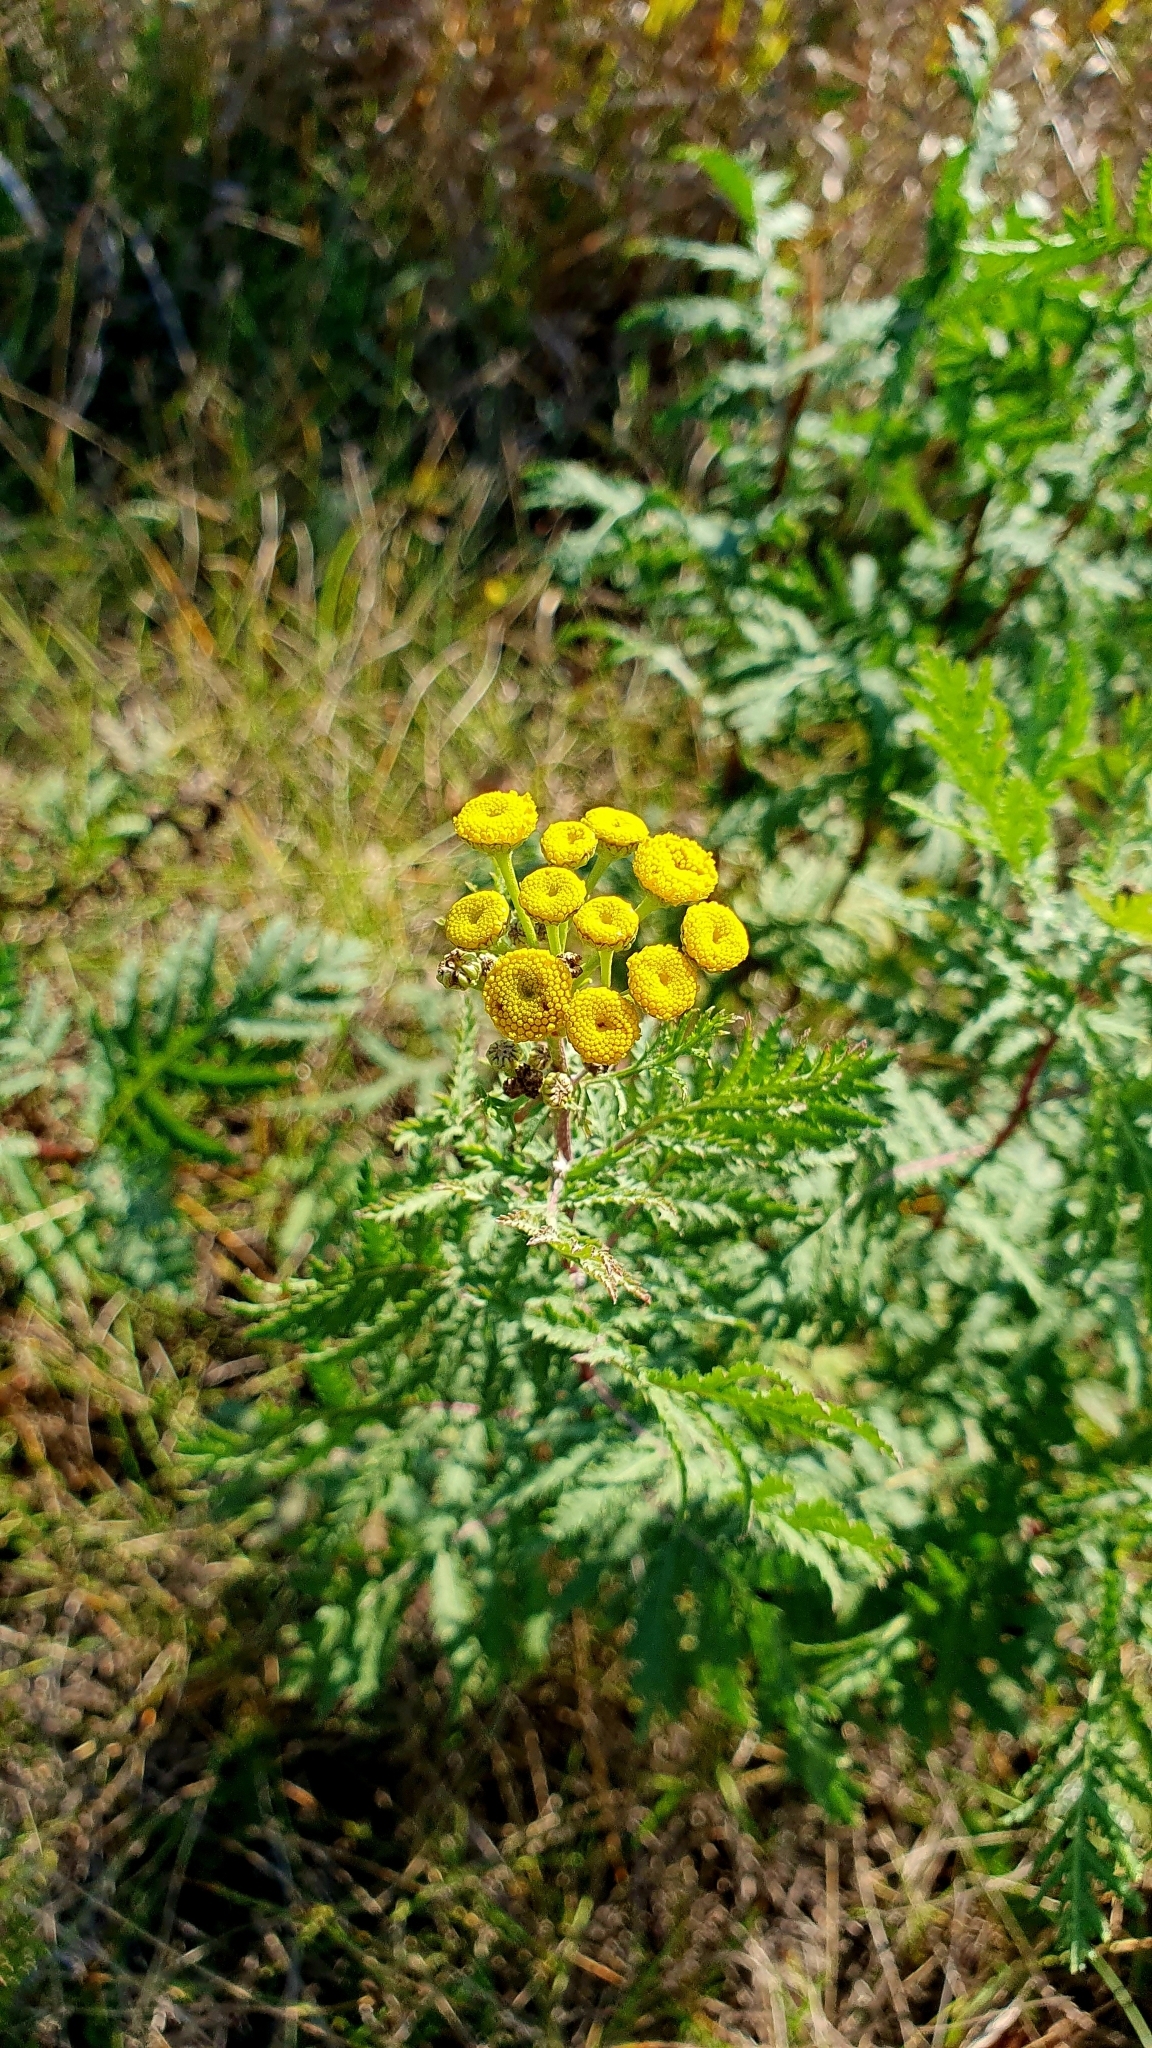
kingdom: Plantae
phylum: Tracheophyta
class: Magnoliopsida
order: Asterales
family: Asteraceae
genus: Tanacetum
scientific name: Tanacetum vulgare
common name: Common tansy
